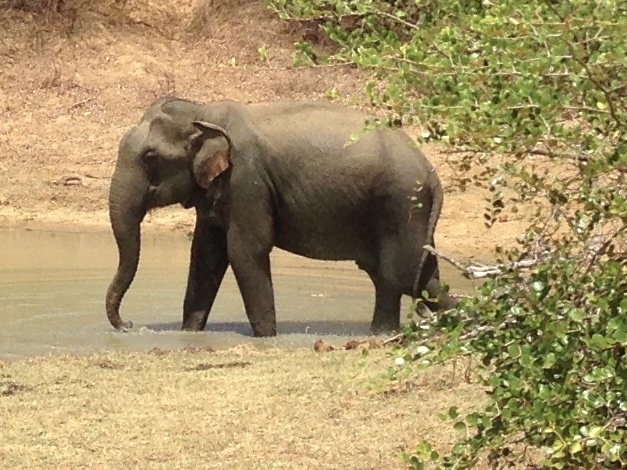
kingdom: Animalia
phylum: Chordata
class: Mammalia
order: Proboscidea
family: Elephantidae
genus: Elephas
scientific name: Elephas maximus
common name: Asian elephant
